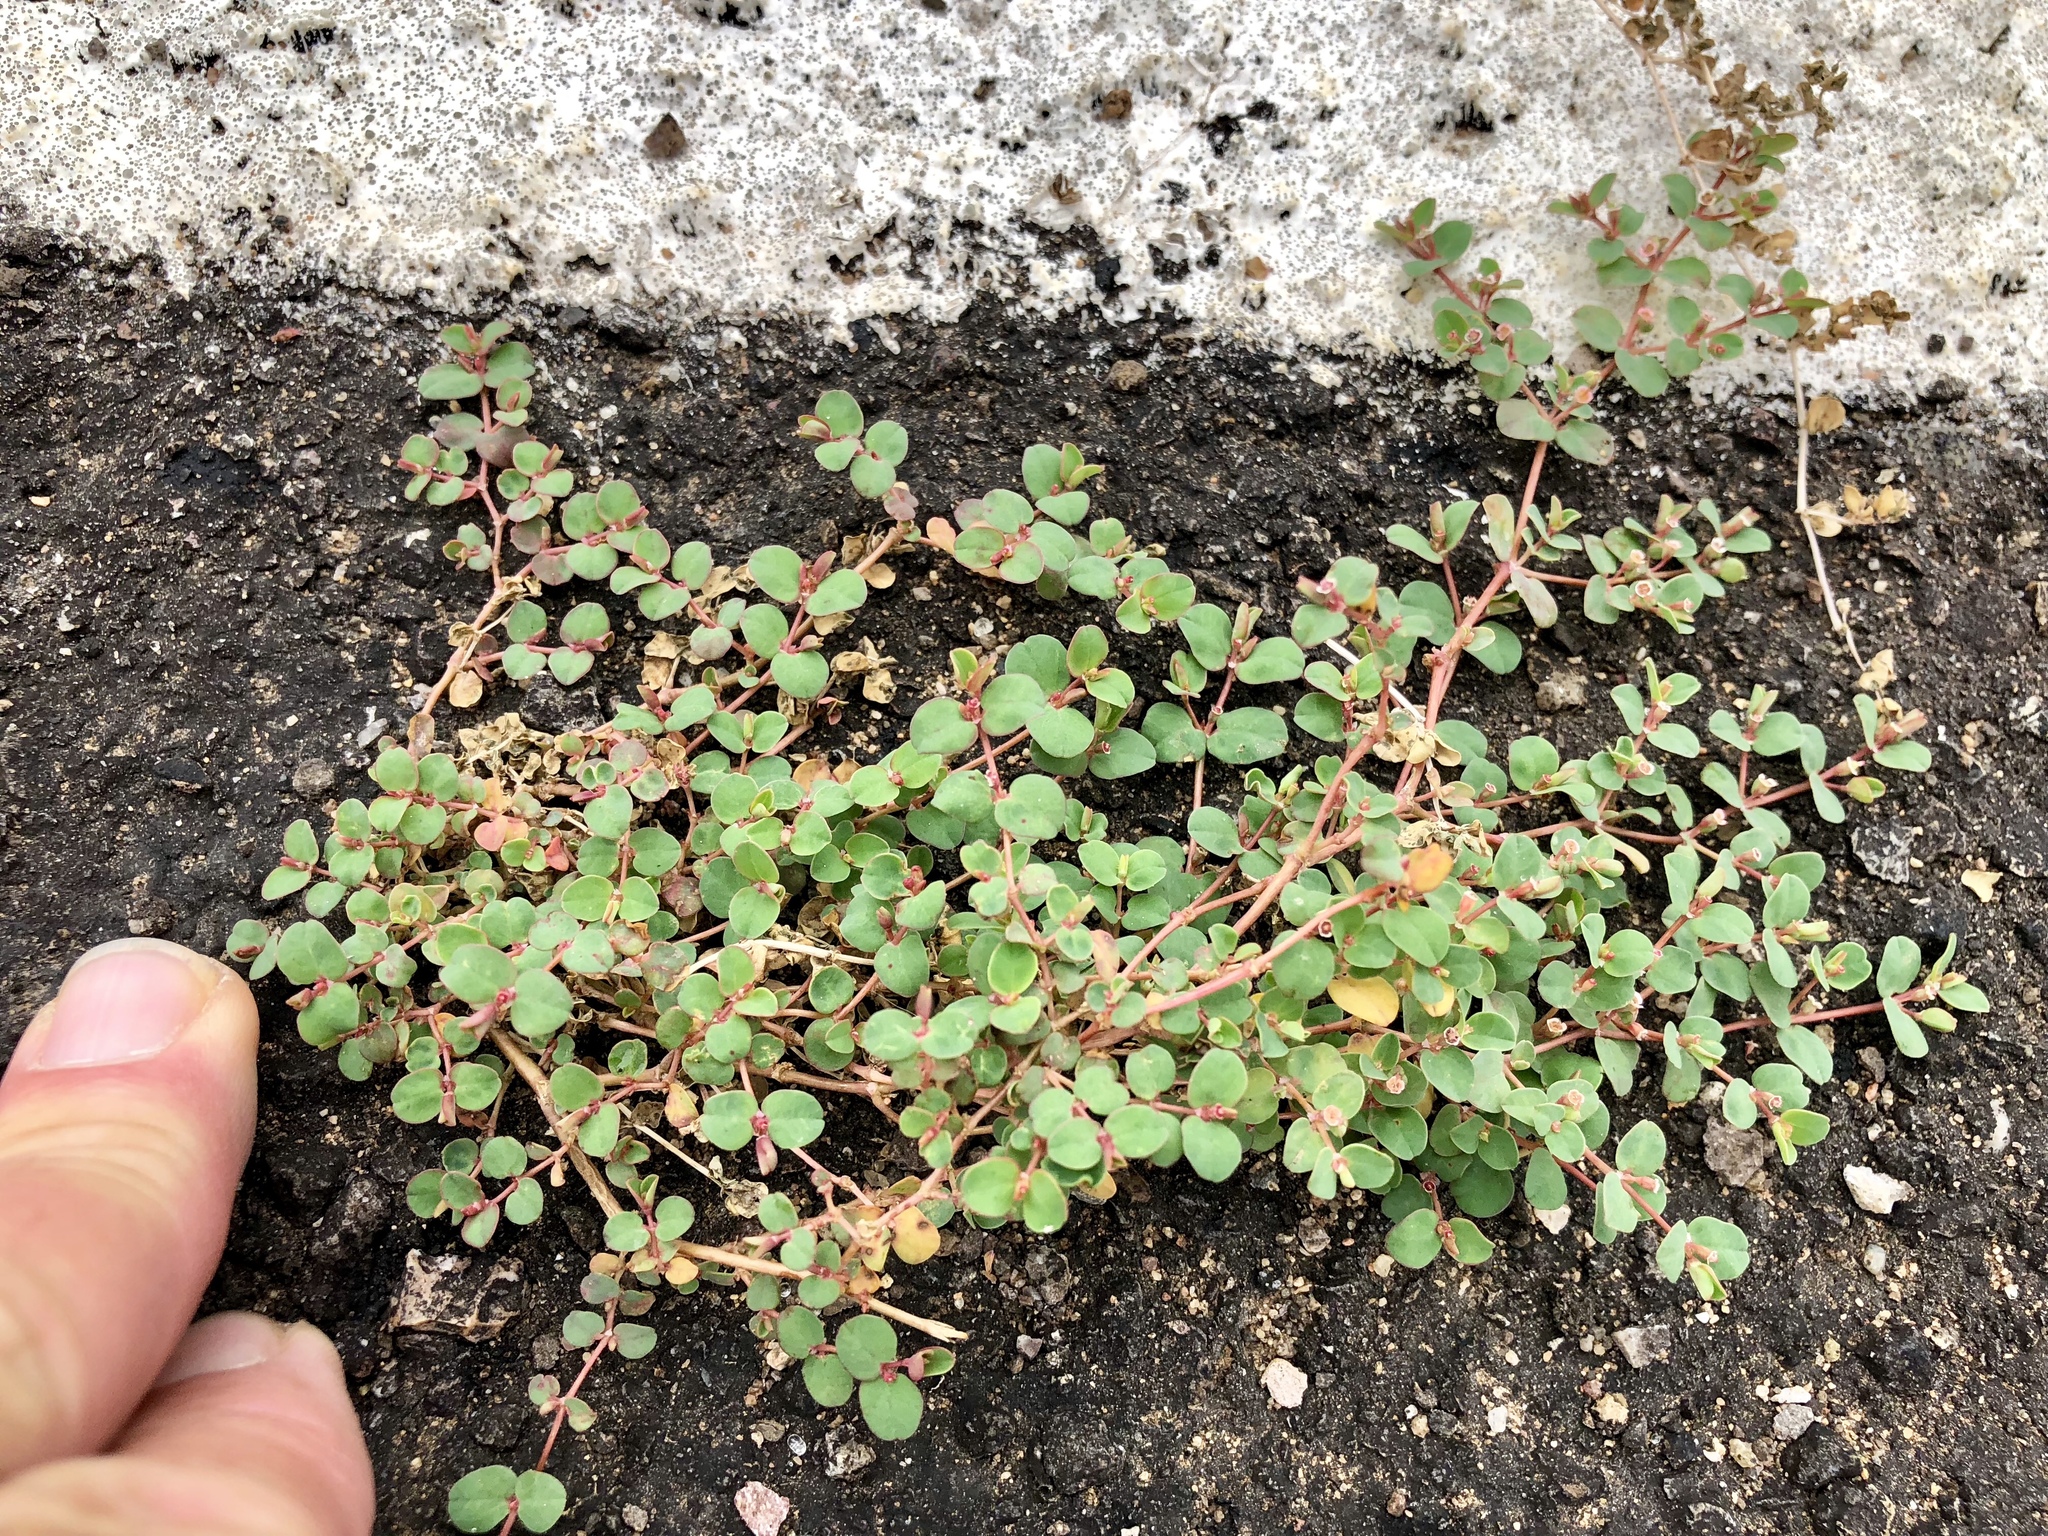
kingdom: Plantae
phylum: Tracheophyta
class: Magnoliopsida
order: Malpighiales
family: Euphorbiaceae
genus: Euphorbia
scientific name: Euphorbia albomarginata
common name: Whitemargin sandmat
